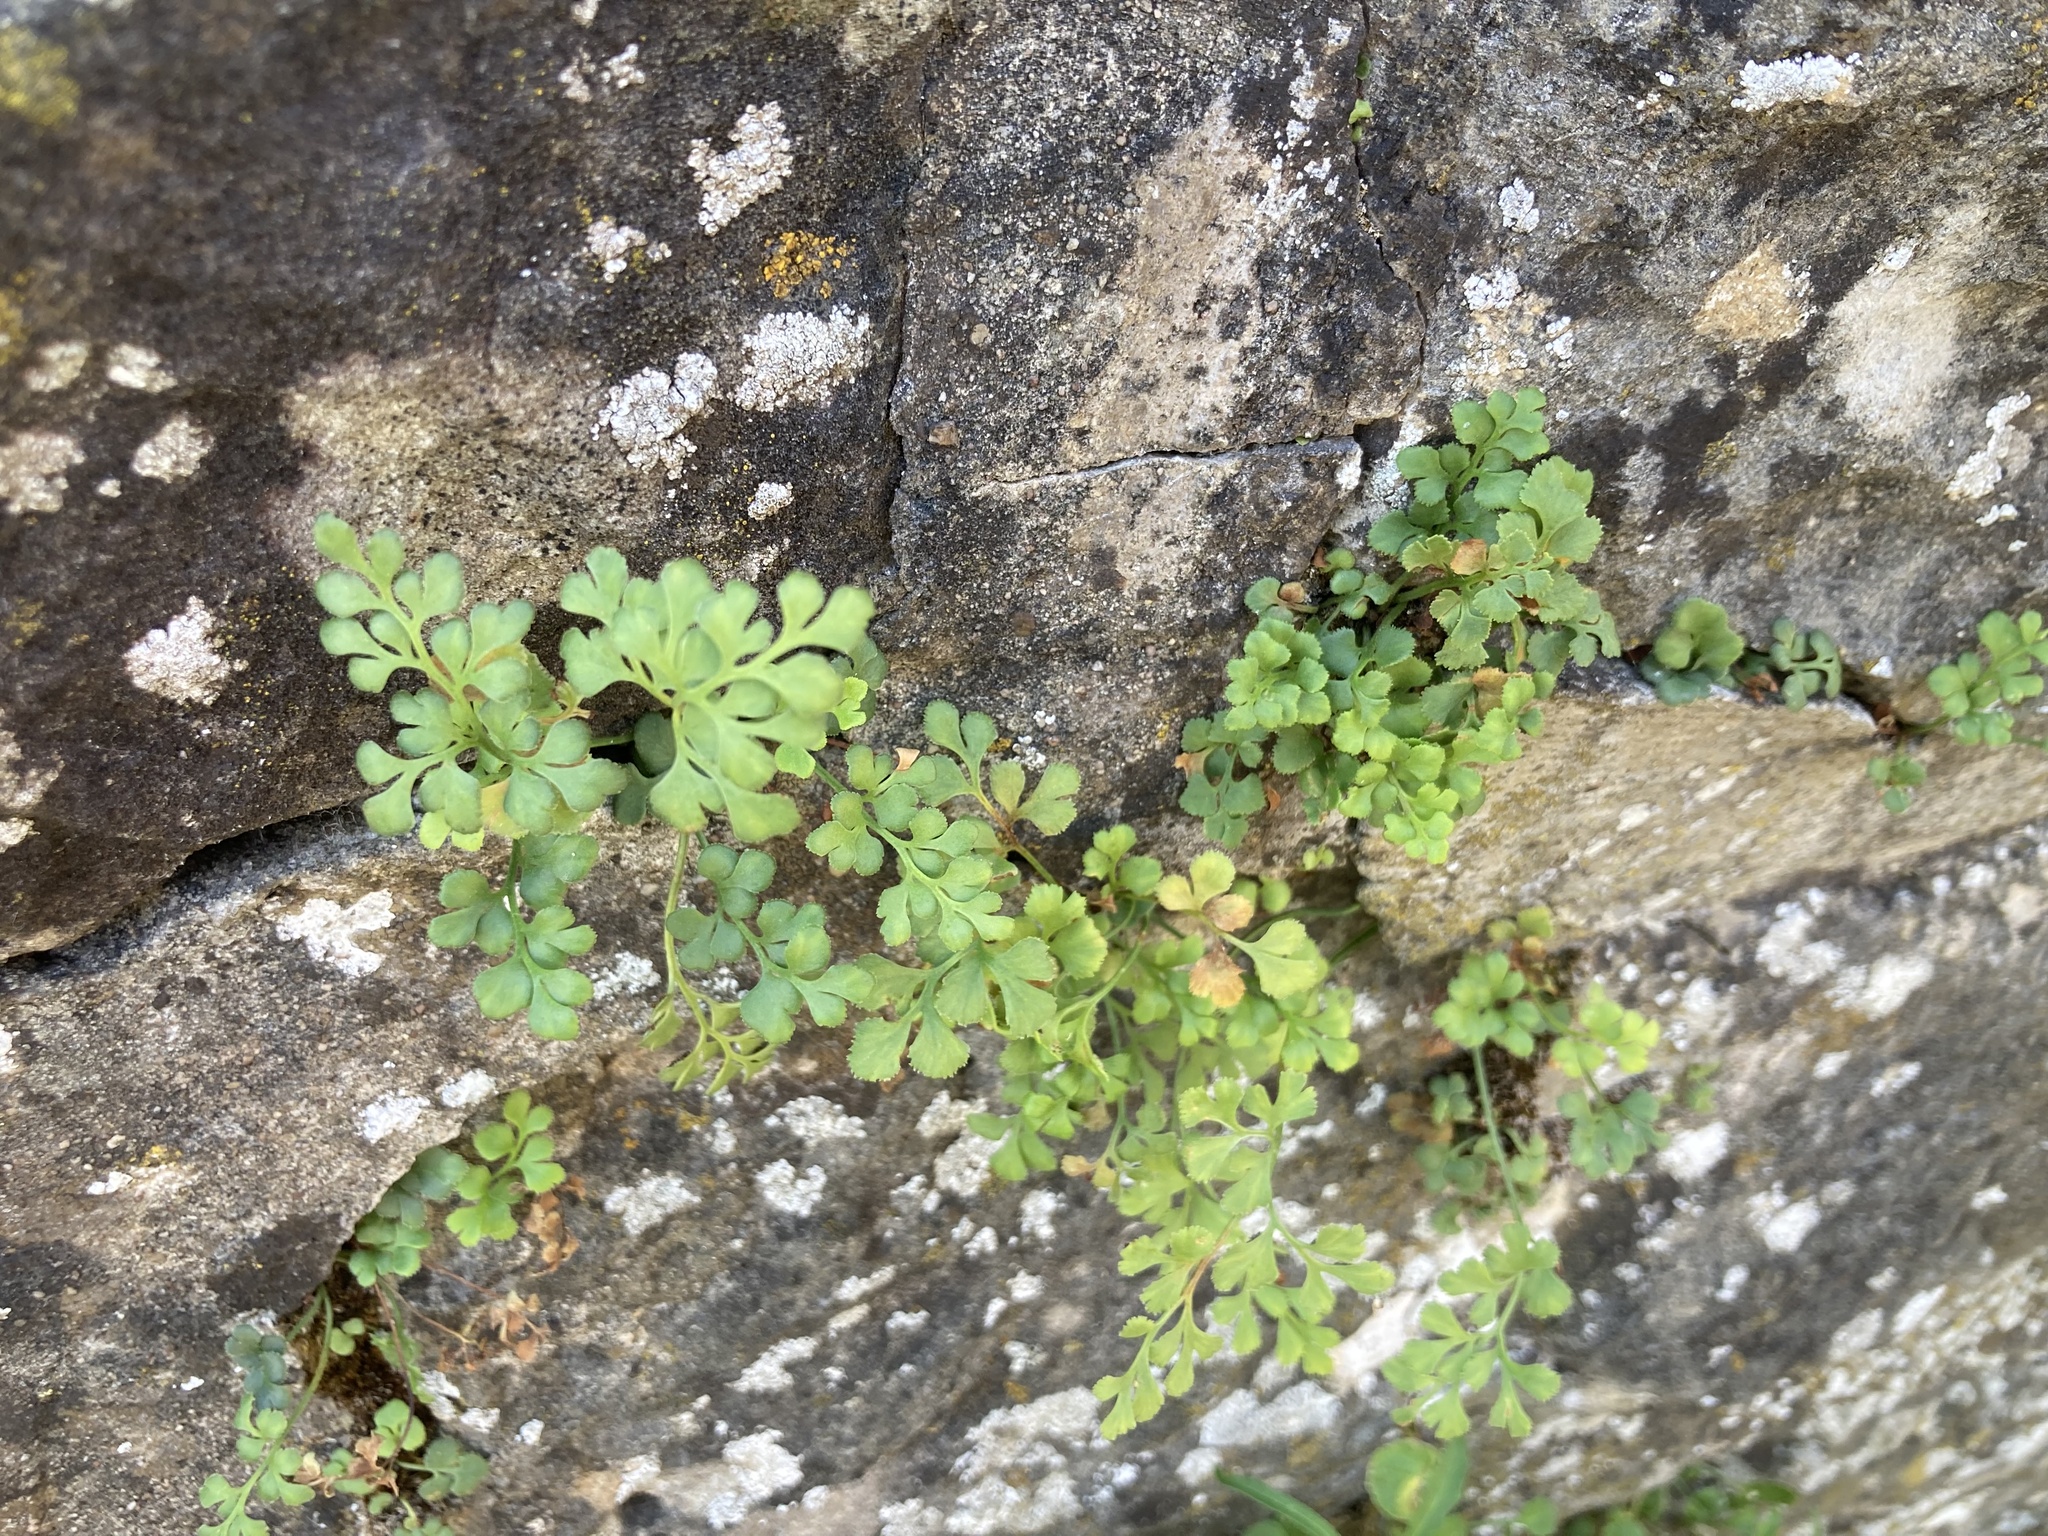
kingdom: Plantae
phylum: Tracheophyta
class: Polypodiopsida
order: Polypodiales
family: Aspleniaceae
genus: Asplenium
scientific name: Asplenium ruta-muraria
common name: Wall-rue
